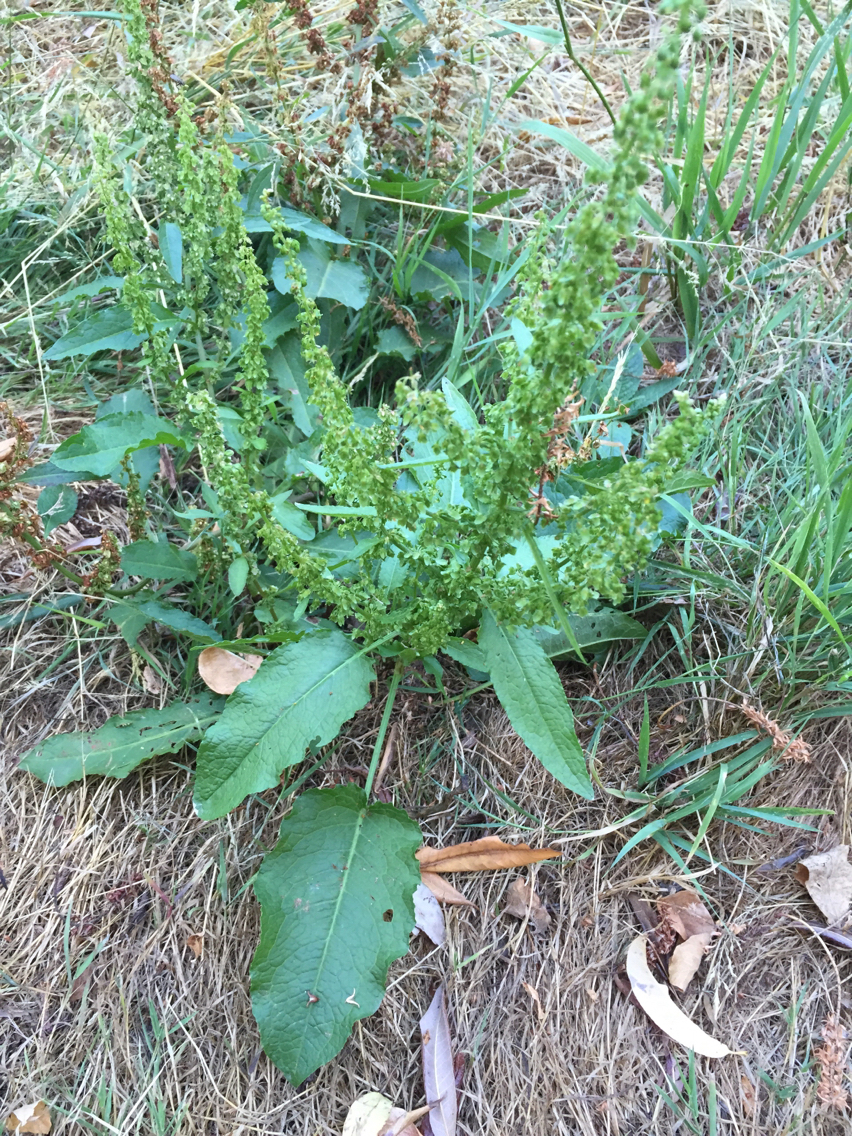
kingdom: Plantae
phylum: Tracheophyta
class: Magnoliopsida
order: Caryophyllales
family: Polygonaceae
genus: Rumex
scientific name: Rumex crispus
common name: Curled dock
